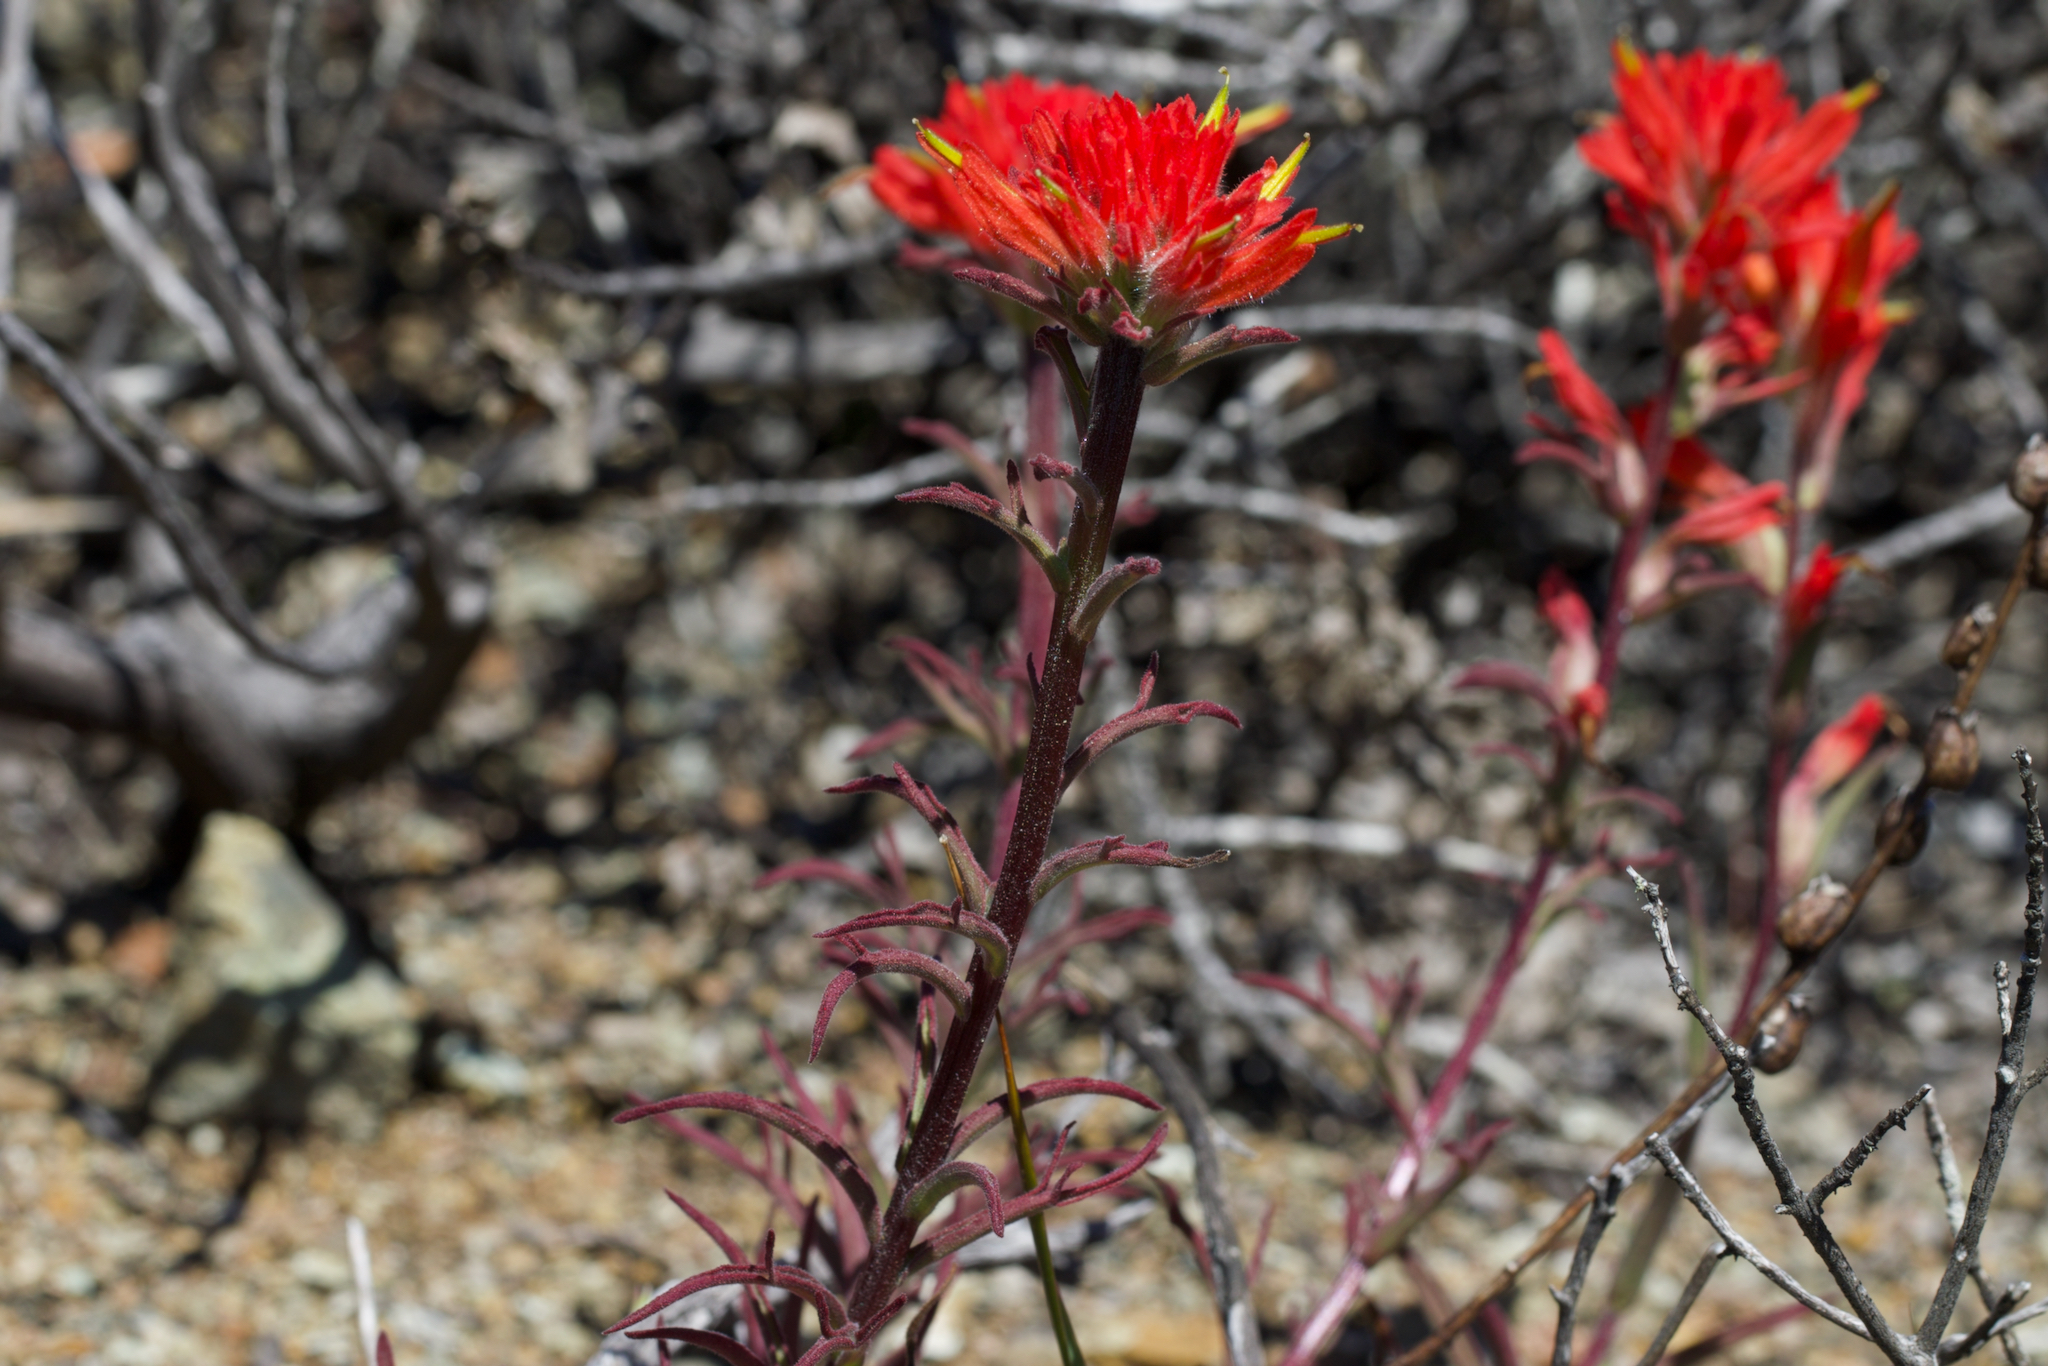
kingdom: Plantae
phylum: Tracheophyta
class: Magnoliopsida
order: Lamiales
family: Orobanchaceae
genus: Castilleja
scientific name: Castilleja subinclusa
